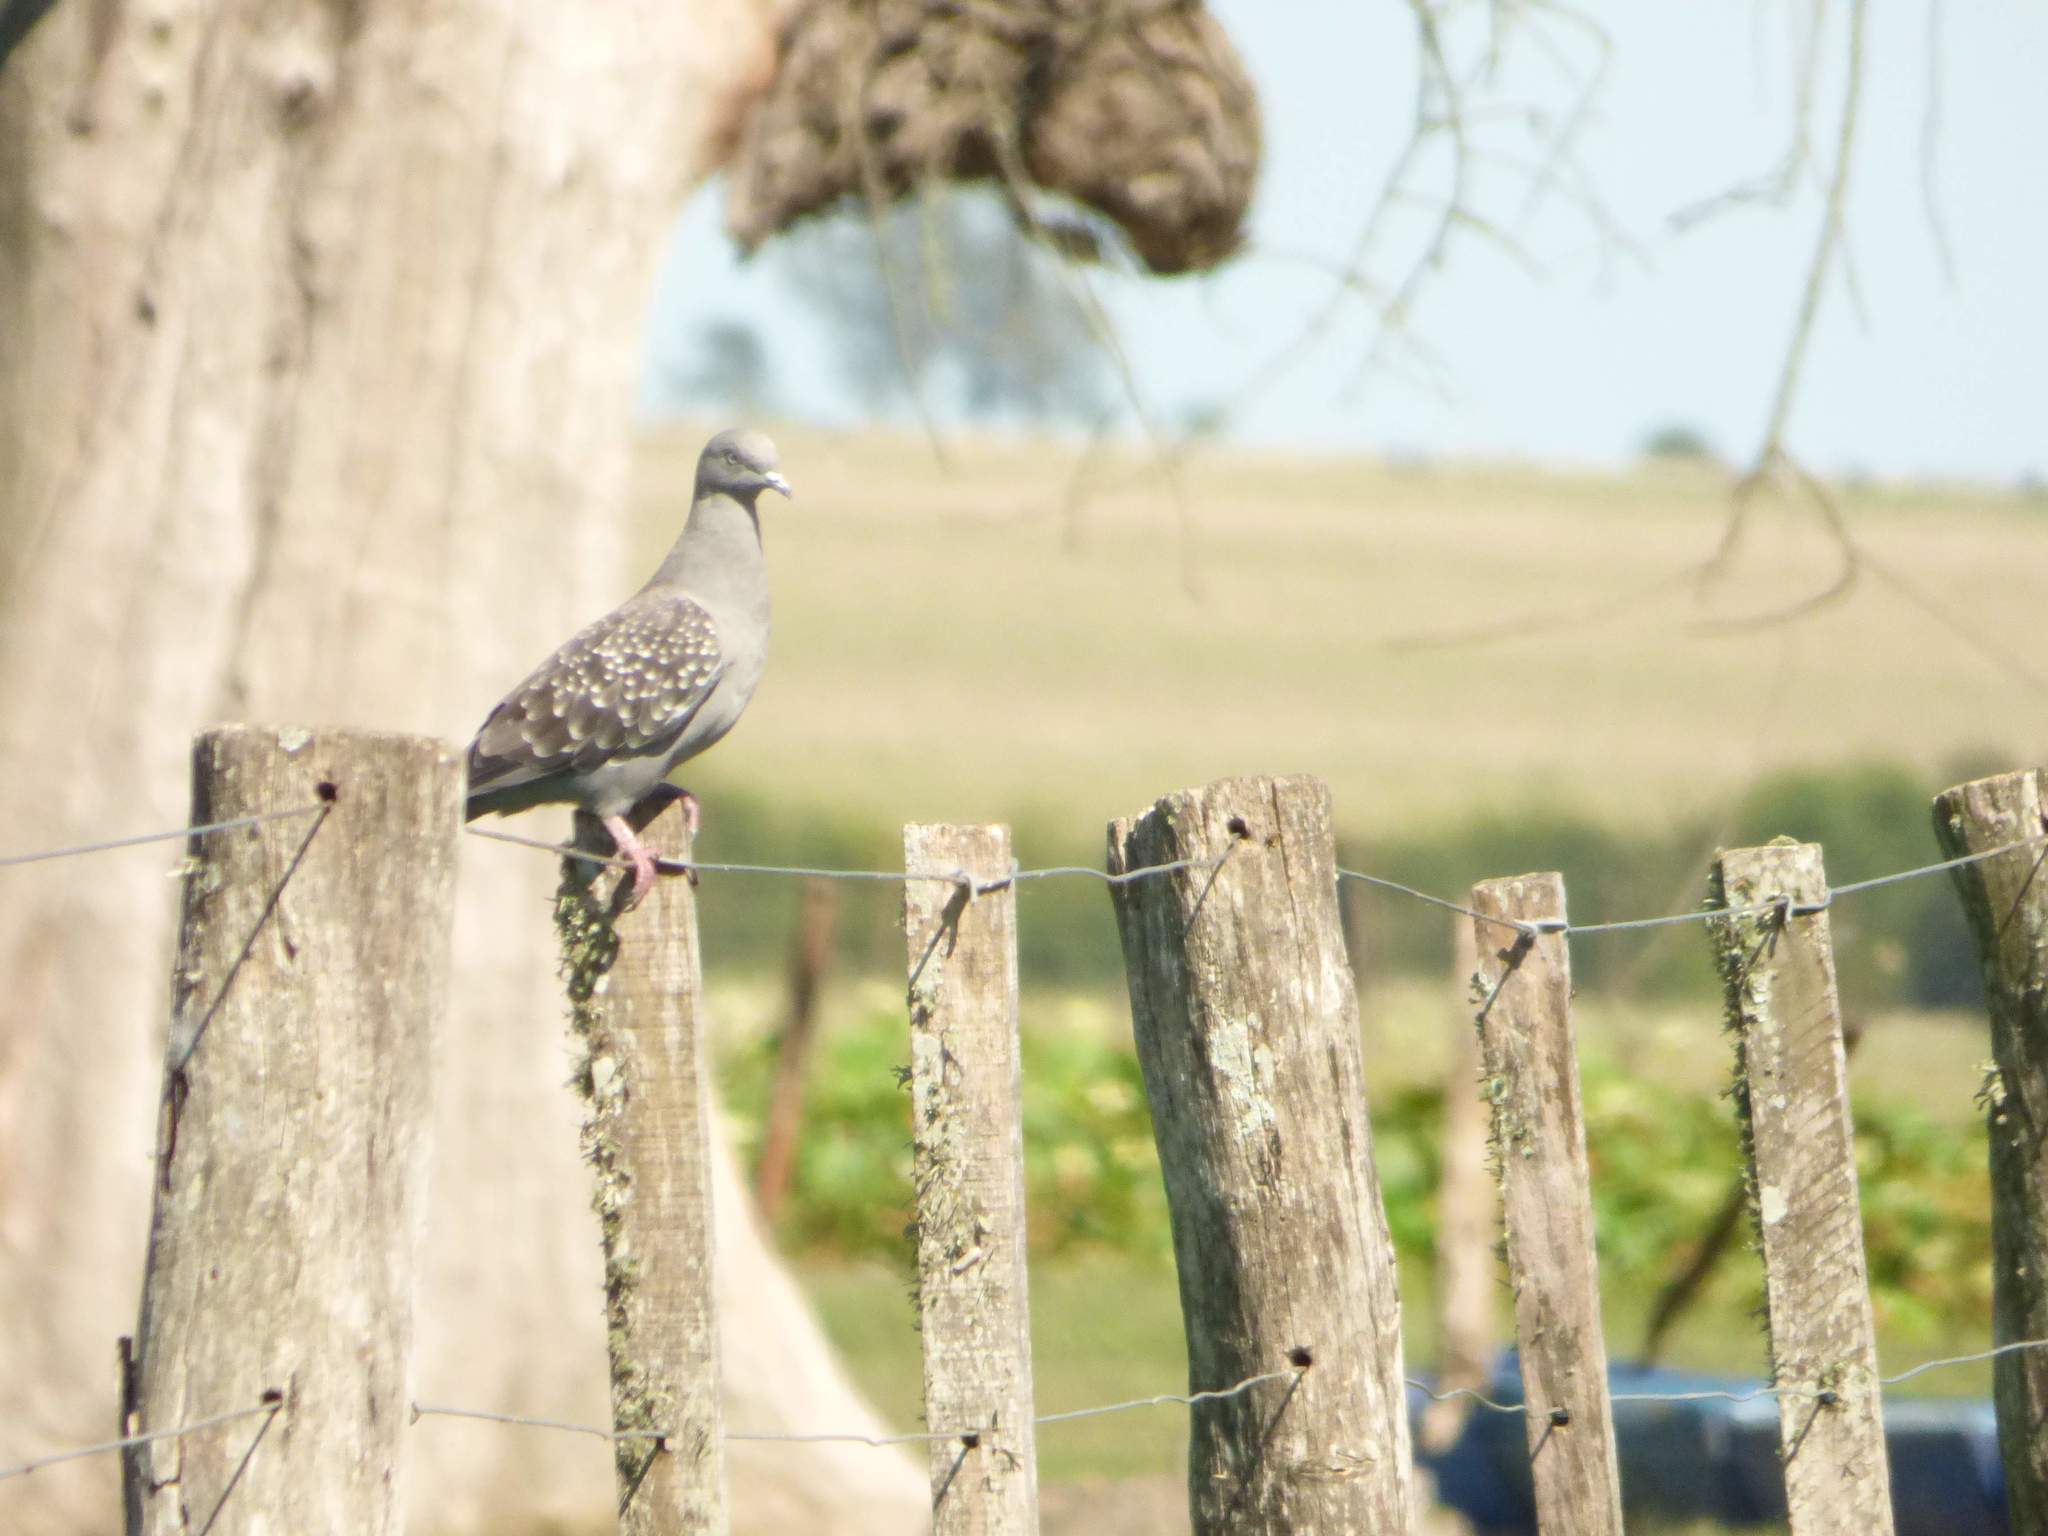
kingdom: Animalia
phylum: Chordata
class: Aves
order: Columbiformes
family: Columbidae
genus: Patagioenas
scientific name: Patagioenas maculosa
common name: Spot-winged pigeon
